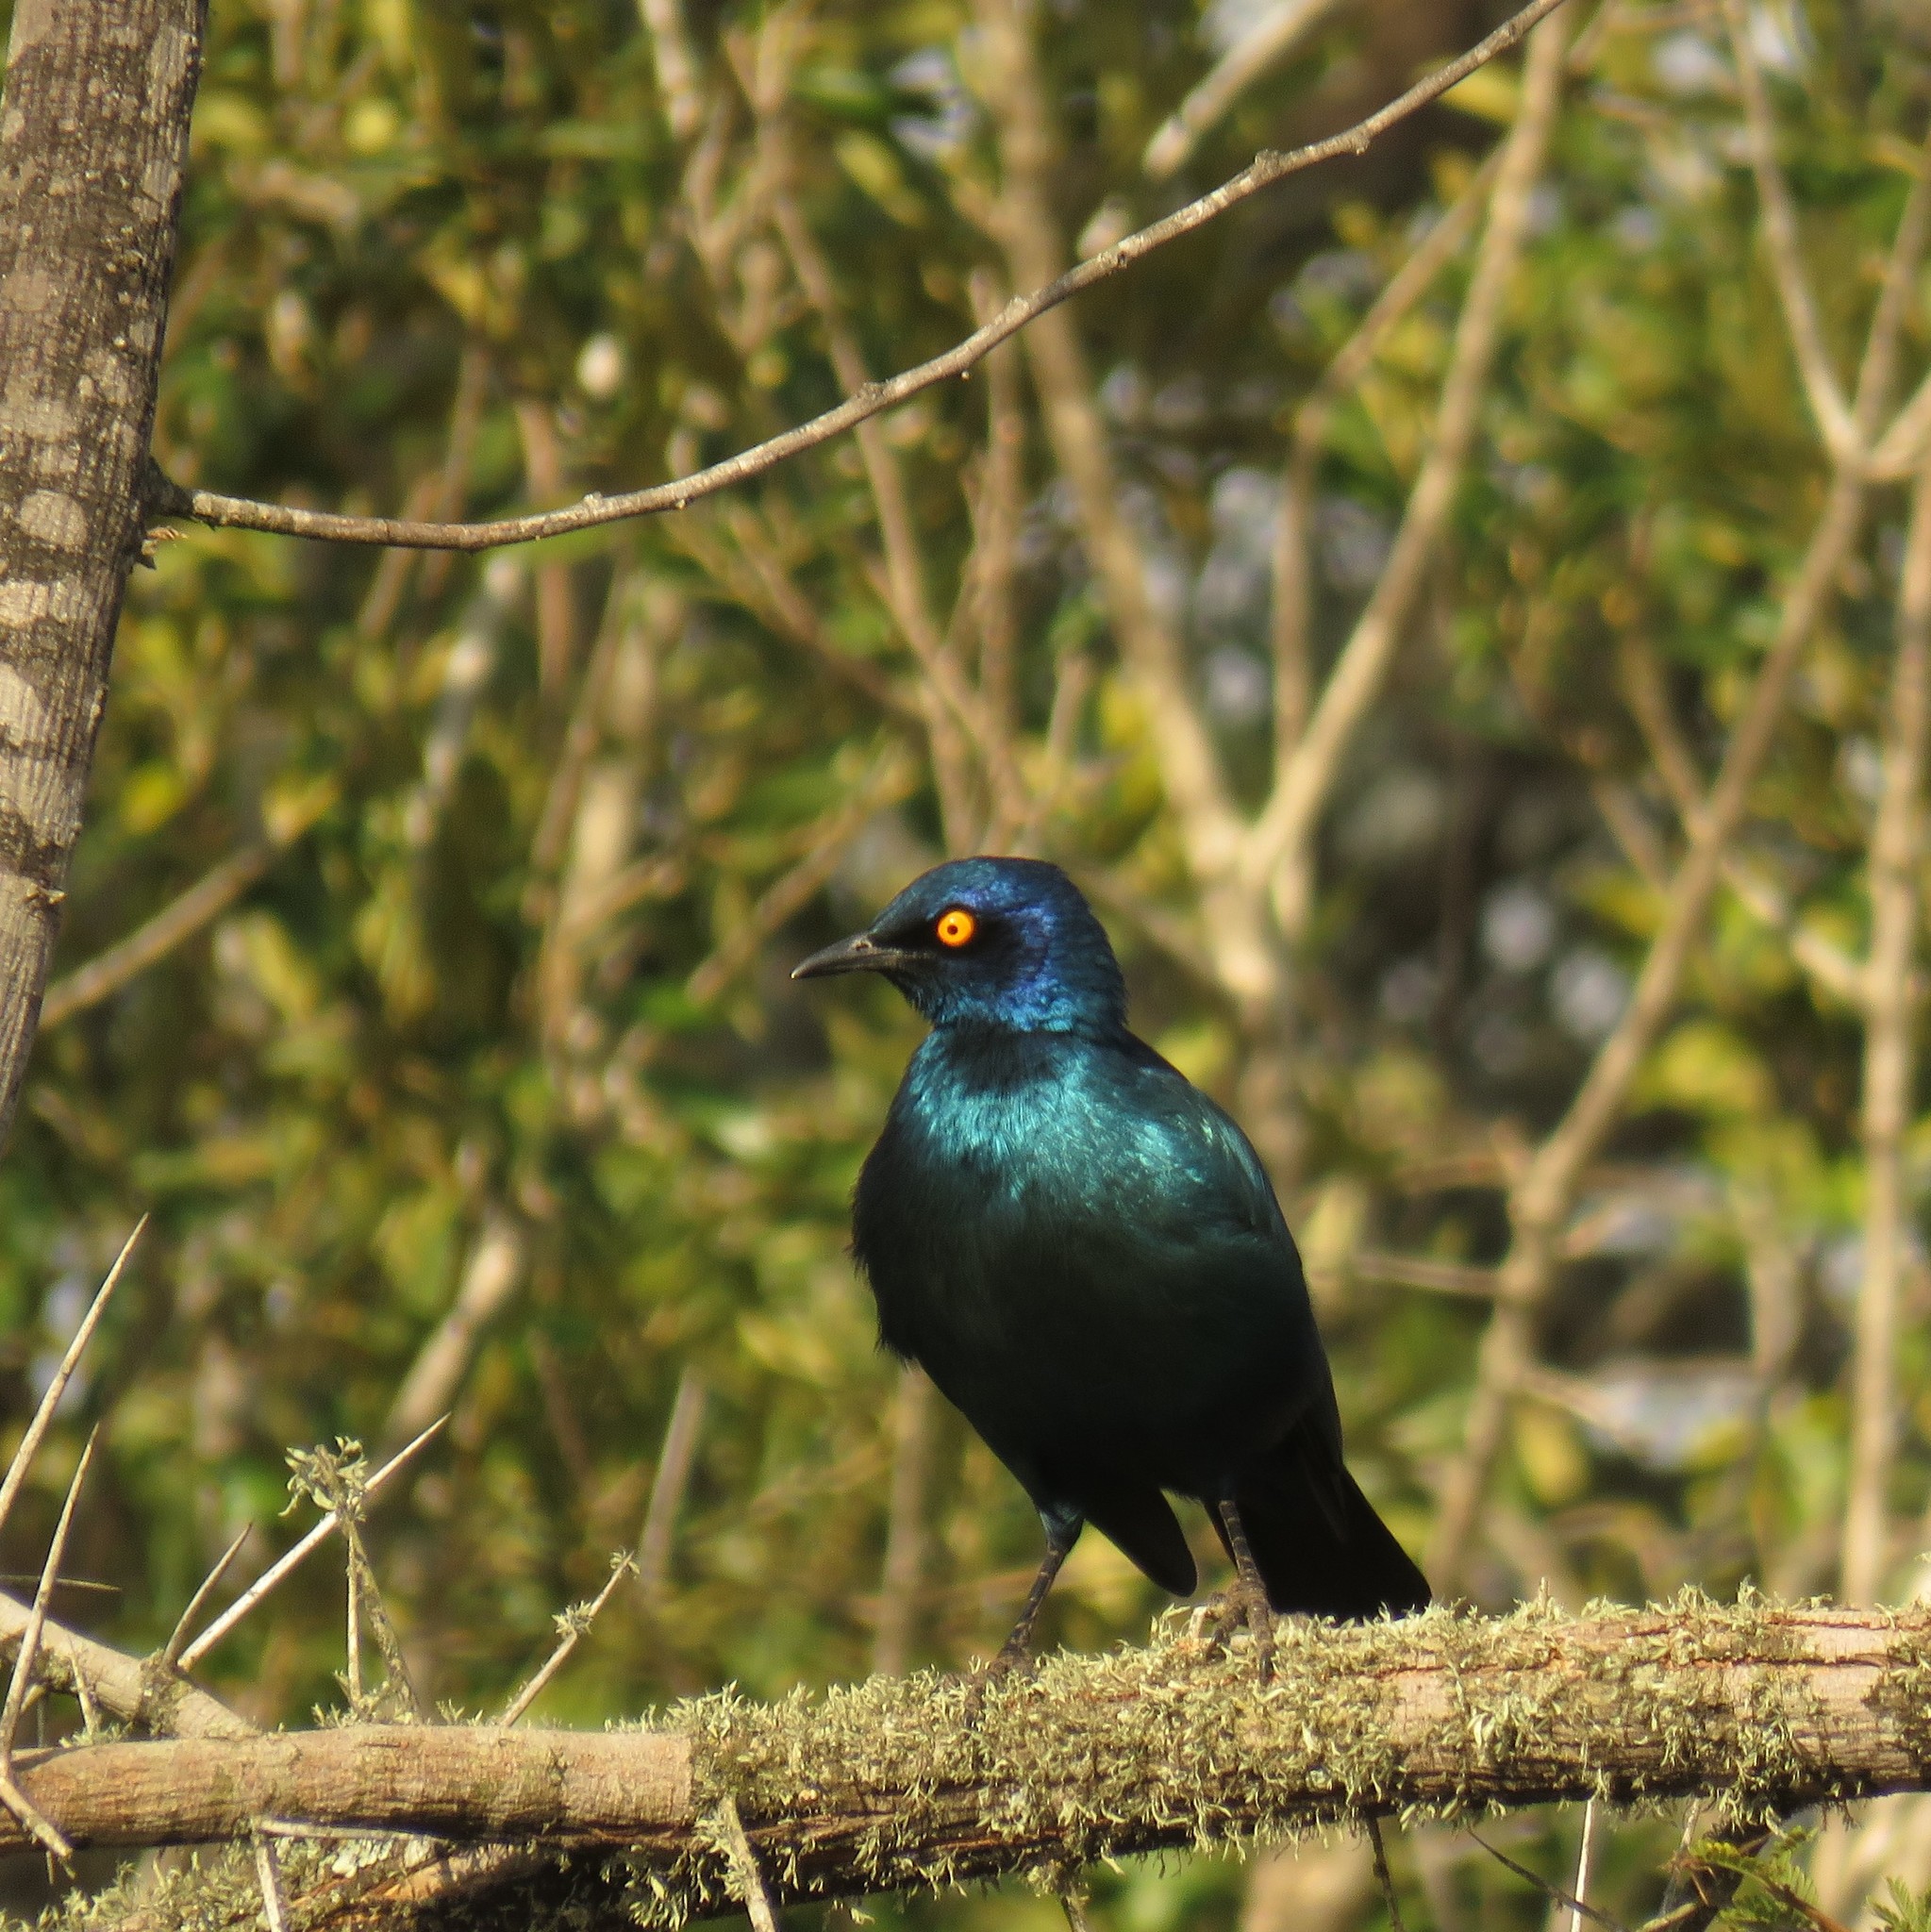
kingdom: Animalia
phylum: Chordata
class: Aves
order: Passeriformes
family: Sturnidae
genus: Lamprotornis
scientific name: Lamprotornis nitens
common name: Cape starling
